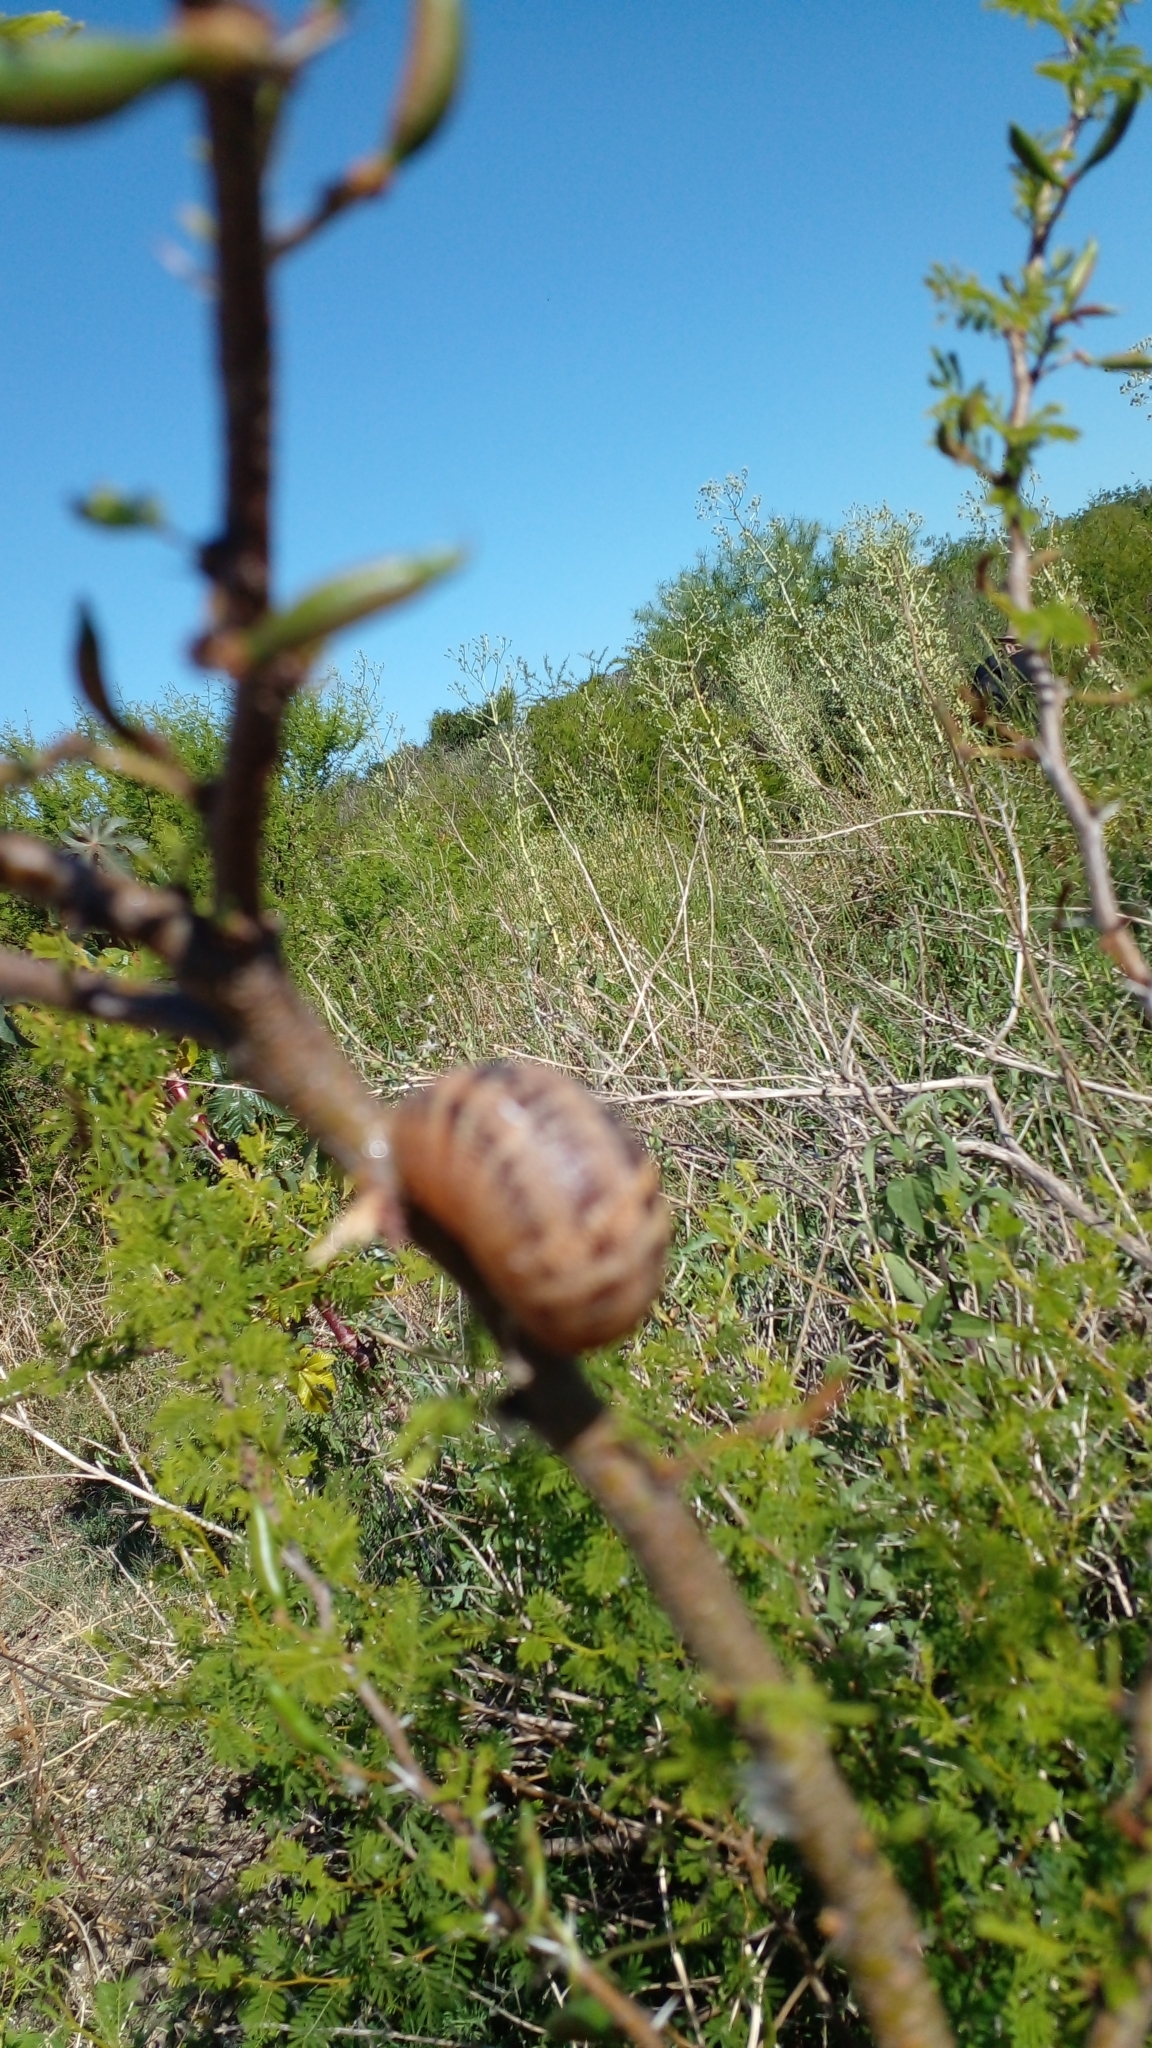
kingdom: Animalia
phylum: Mollusca
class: Gastropoda
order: Stylommatophora
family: Helicidae
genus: Cornu
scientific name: Cornu aspersum
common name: Brown garden snail
